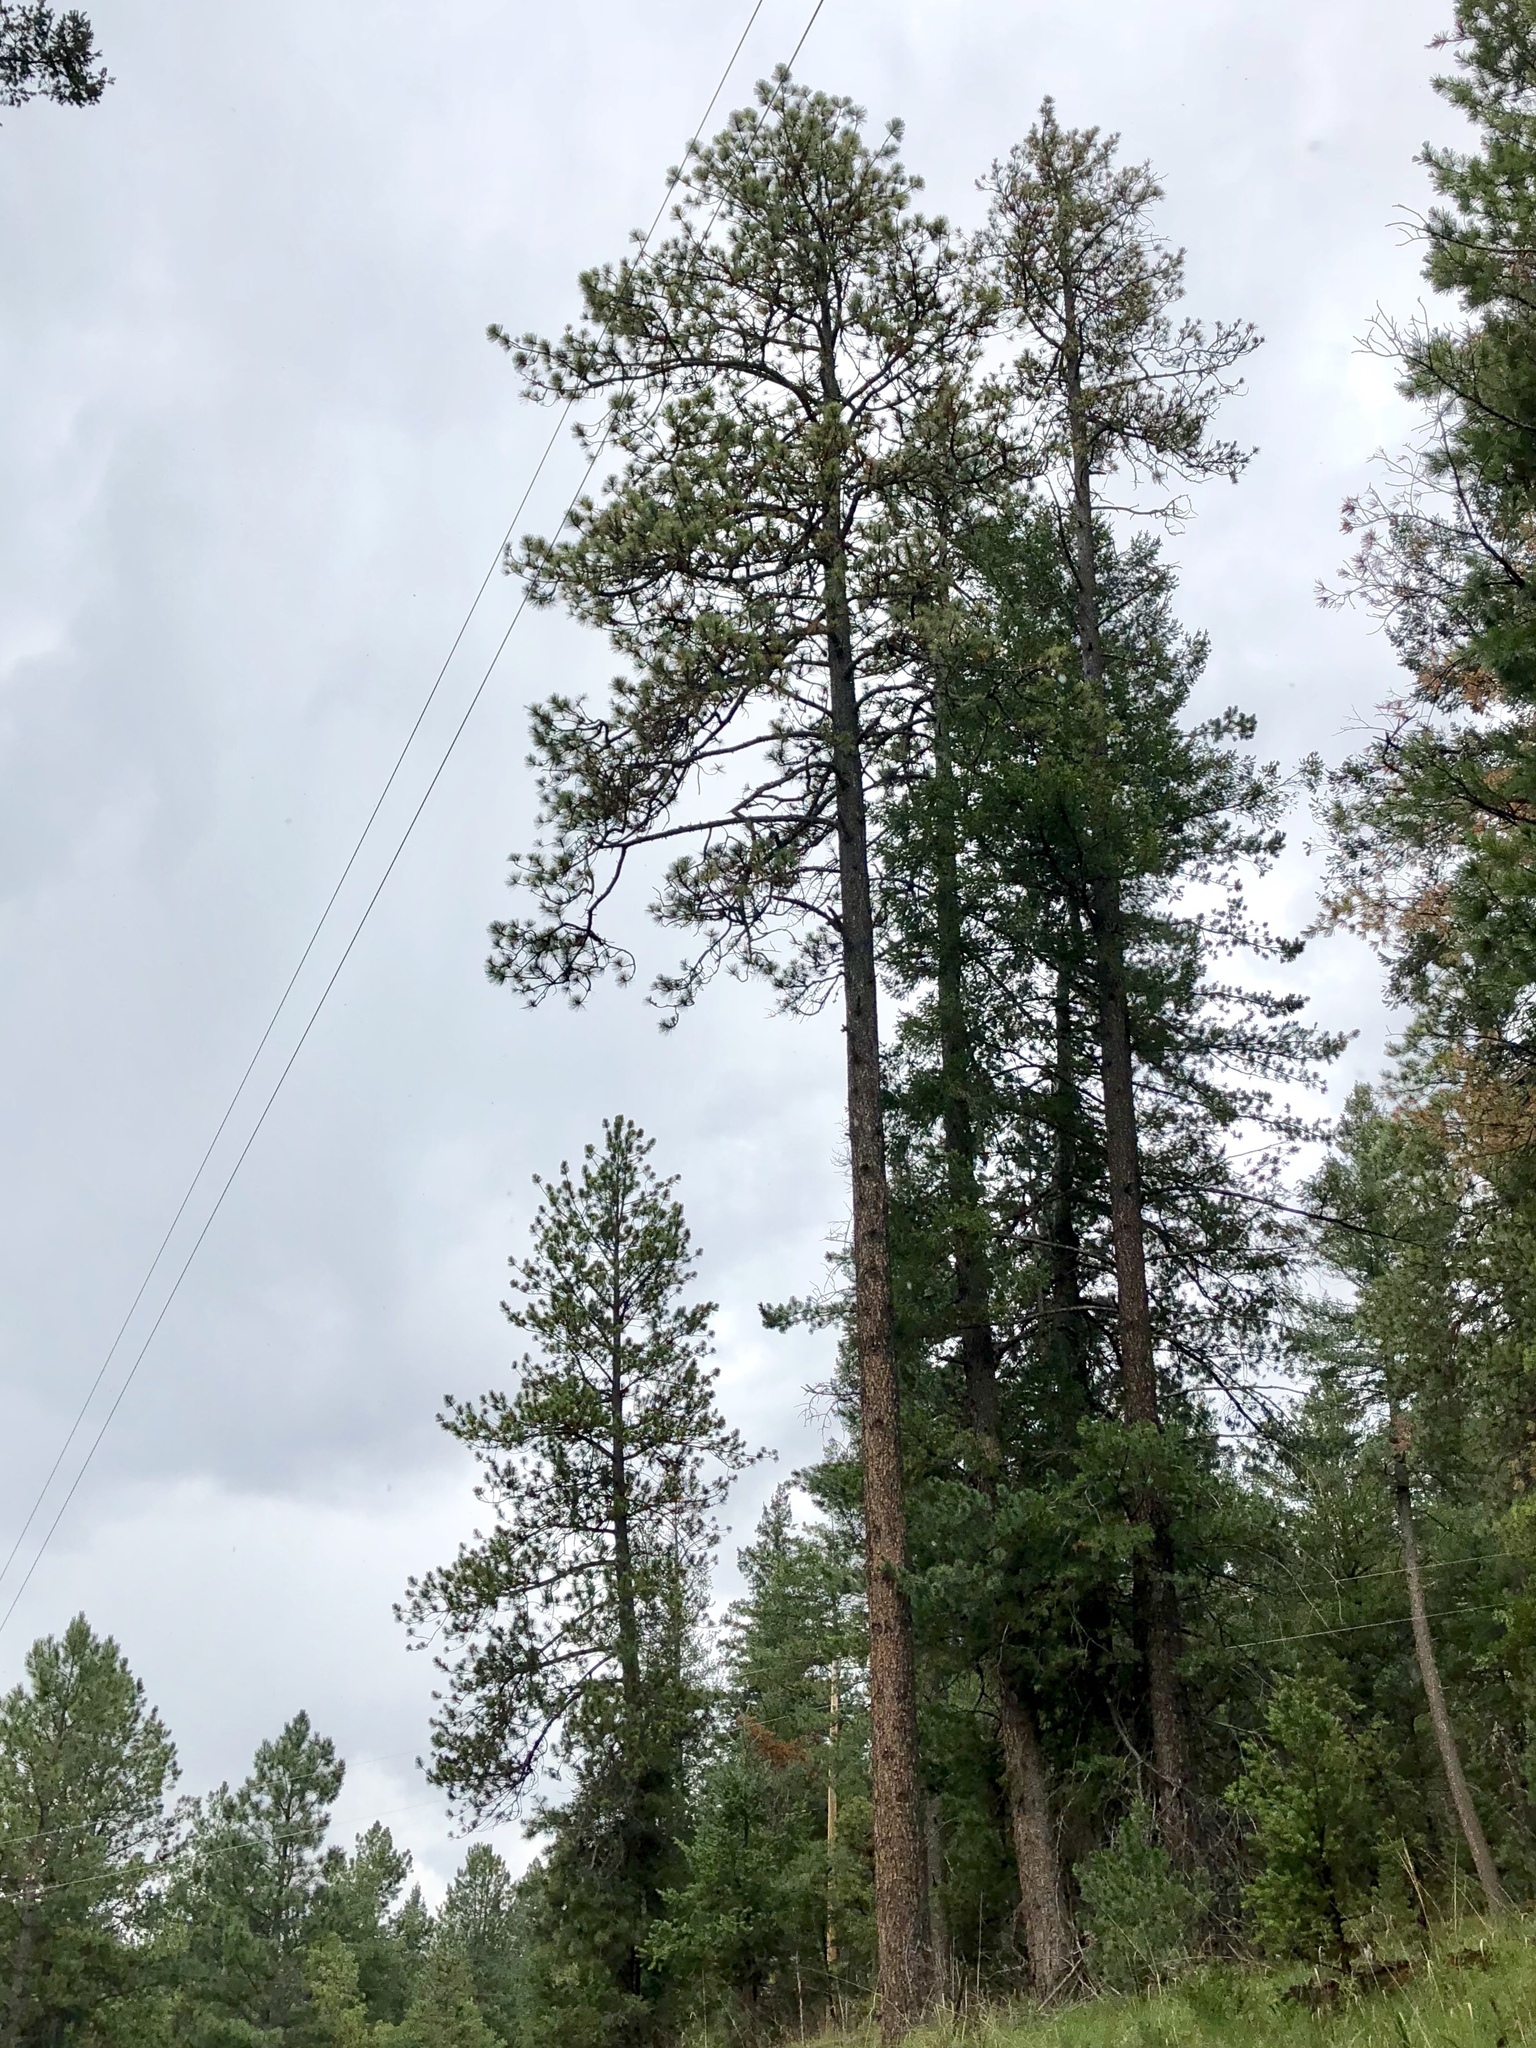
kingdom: Plantae
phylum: Tracheophyta
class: Pinopsida
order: Pinales
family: Pinaceae
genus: Pinus
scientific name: Pinus ponderosa
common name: Western yellow-pine
